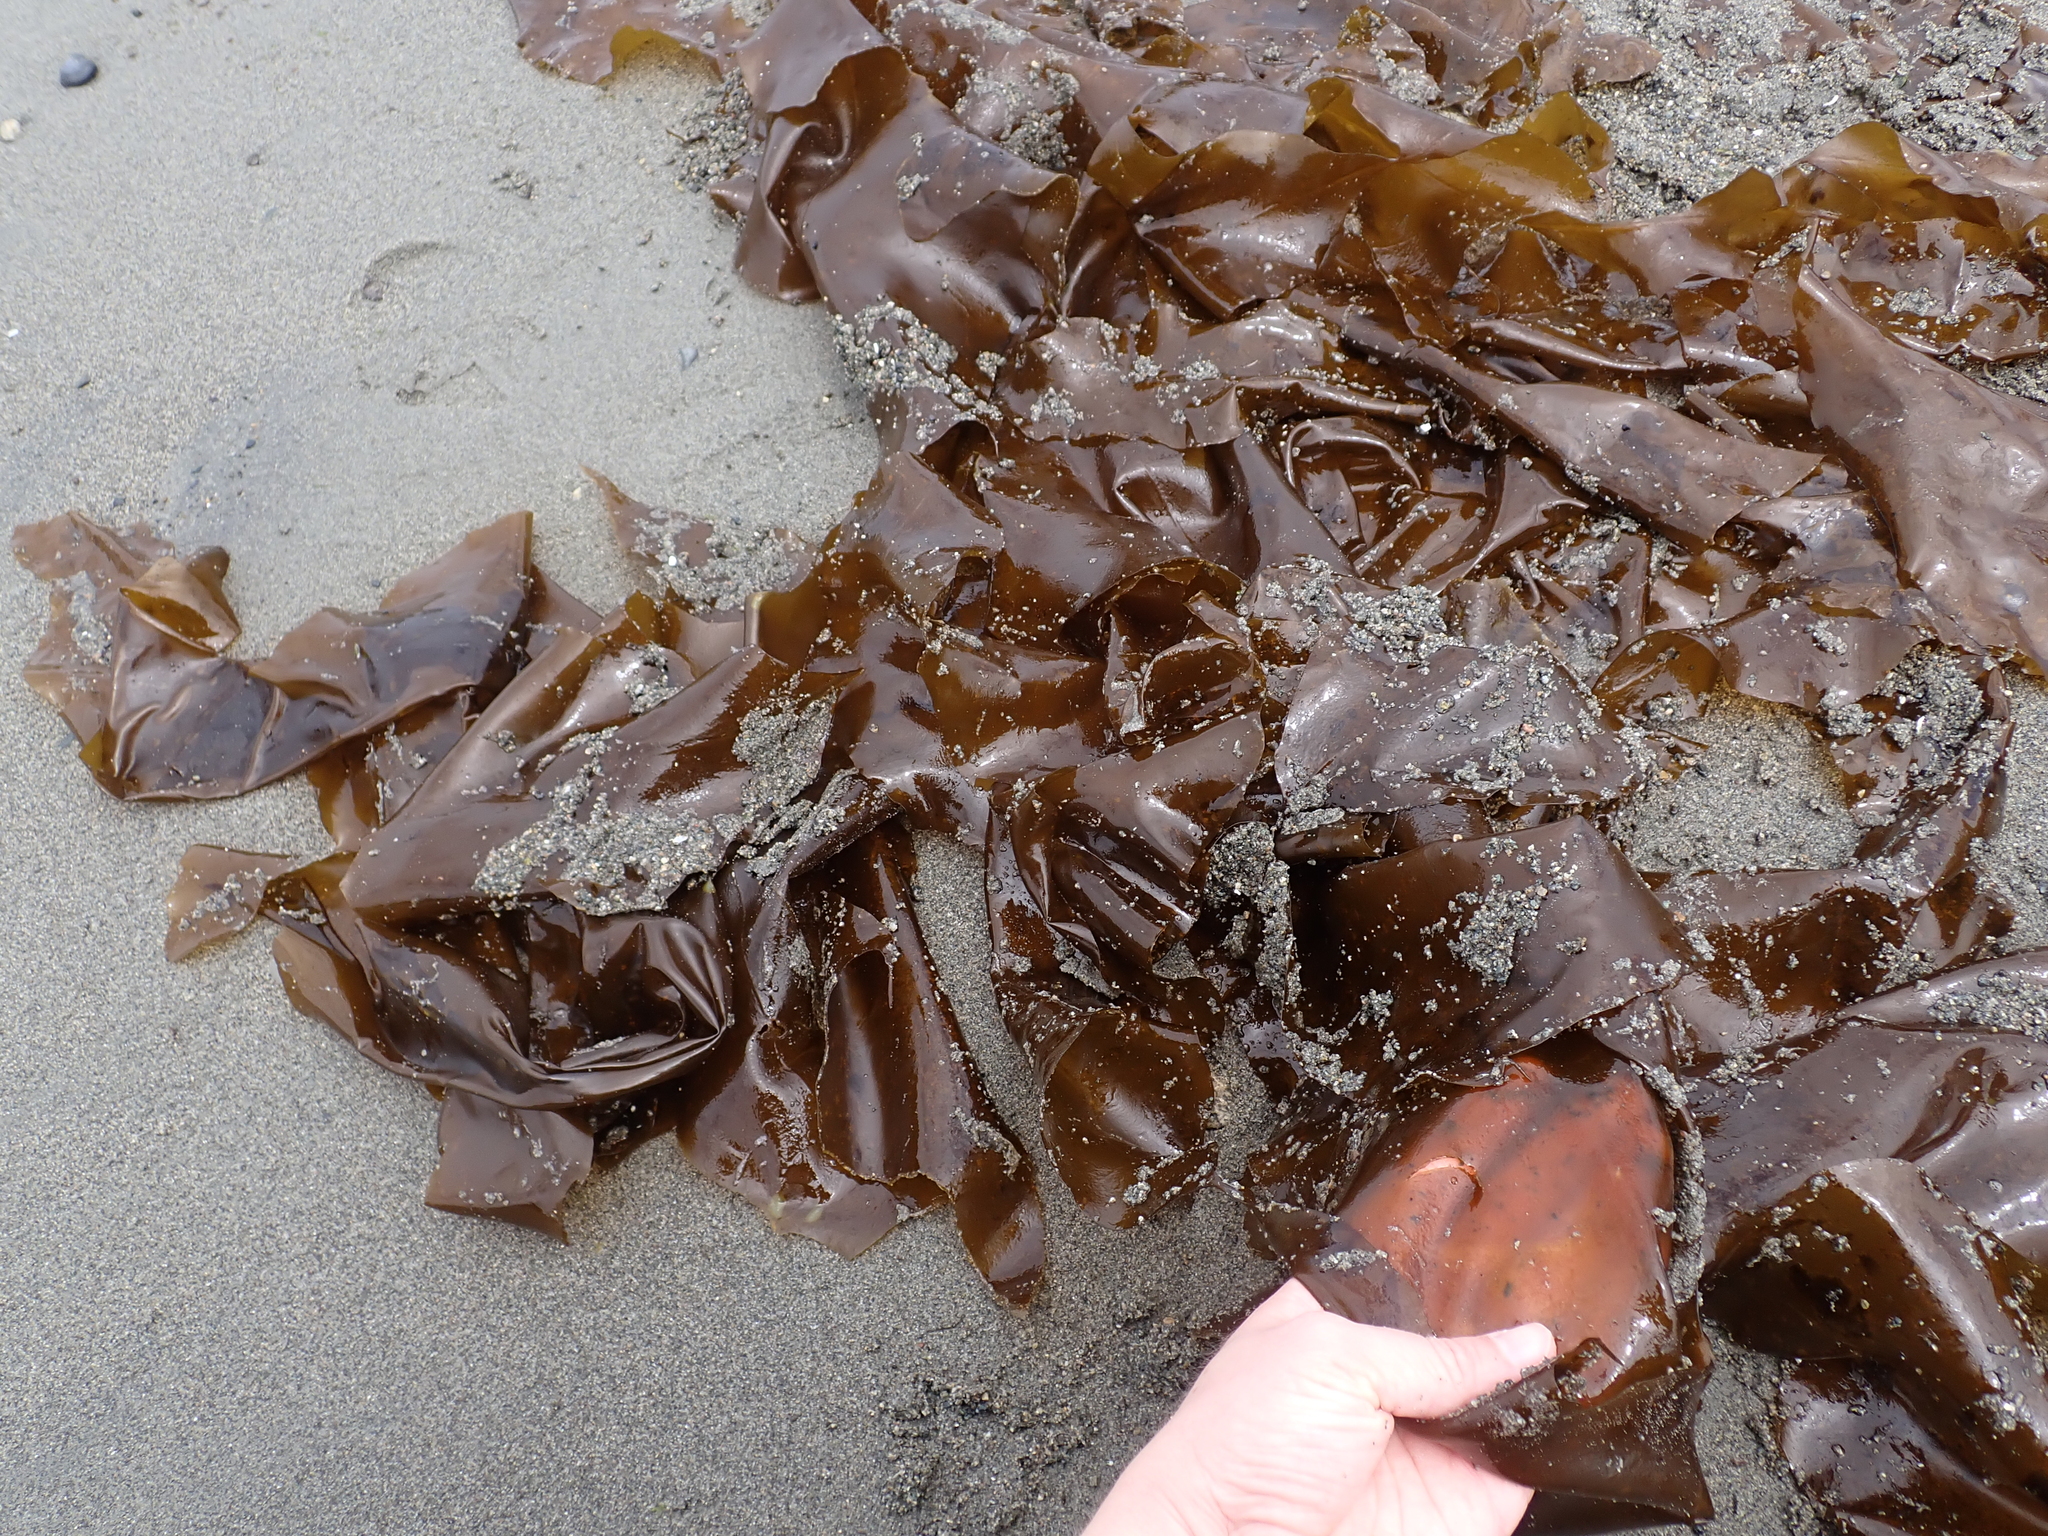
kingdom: Chromista
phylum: Ochrophyta
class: Phaeophyceae
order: Desmarestiales
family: Desmarestiaceae
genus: Desmarestia
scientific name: Desmarestia ligulata
